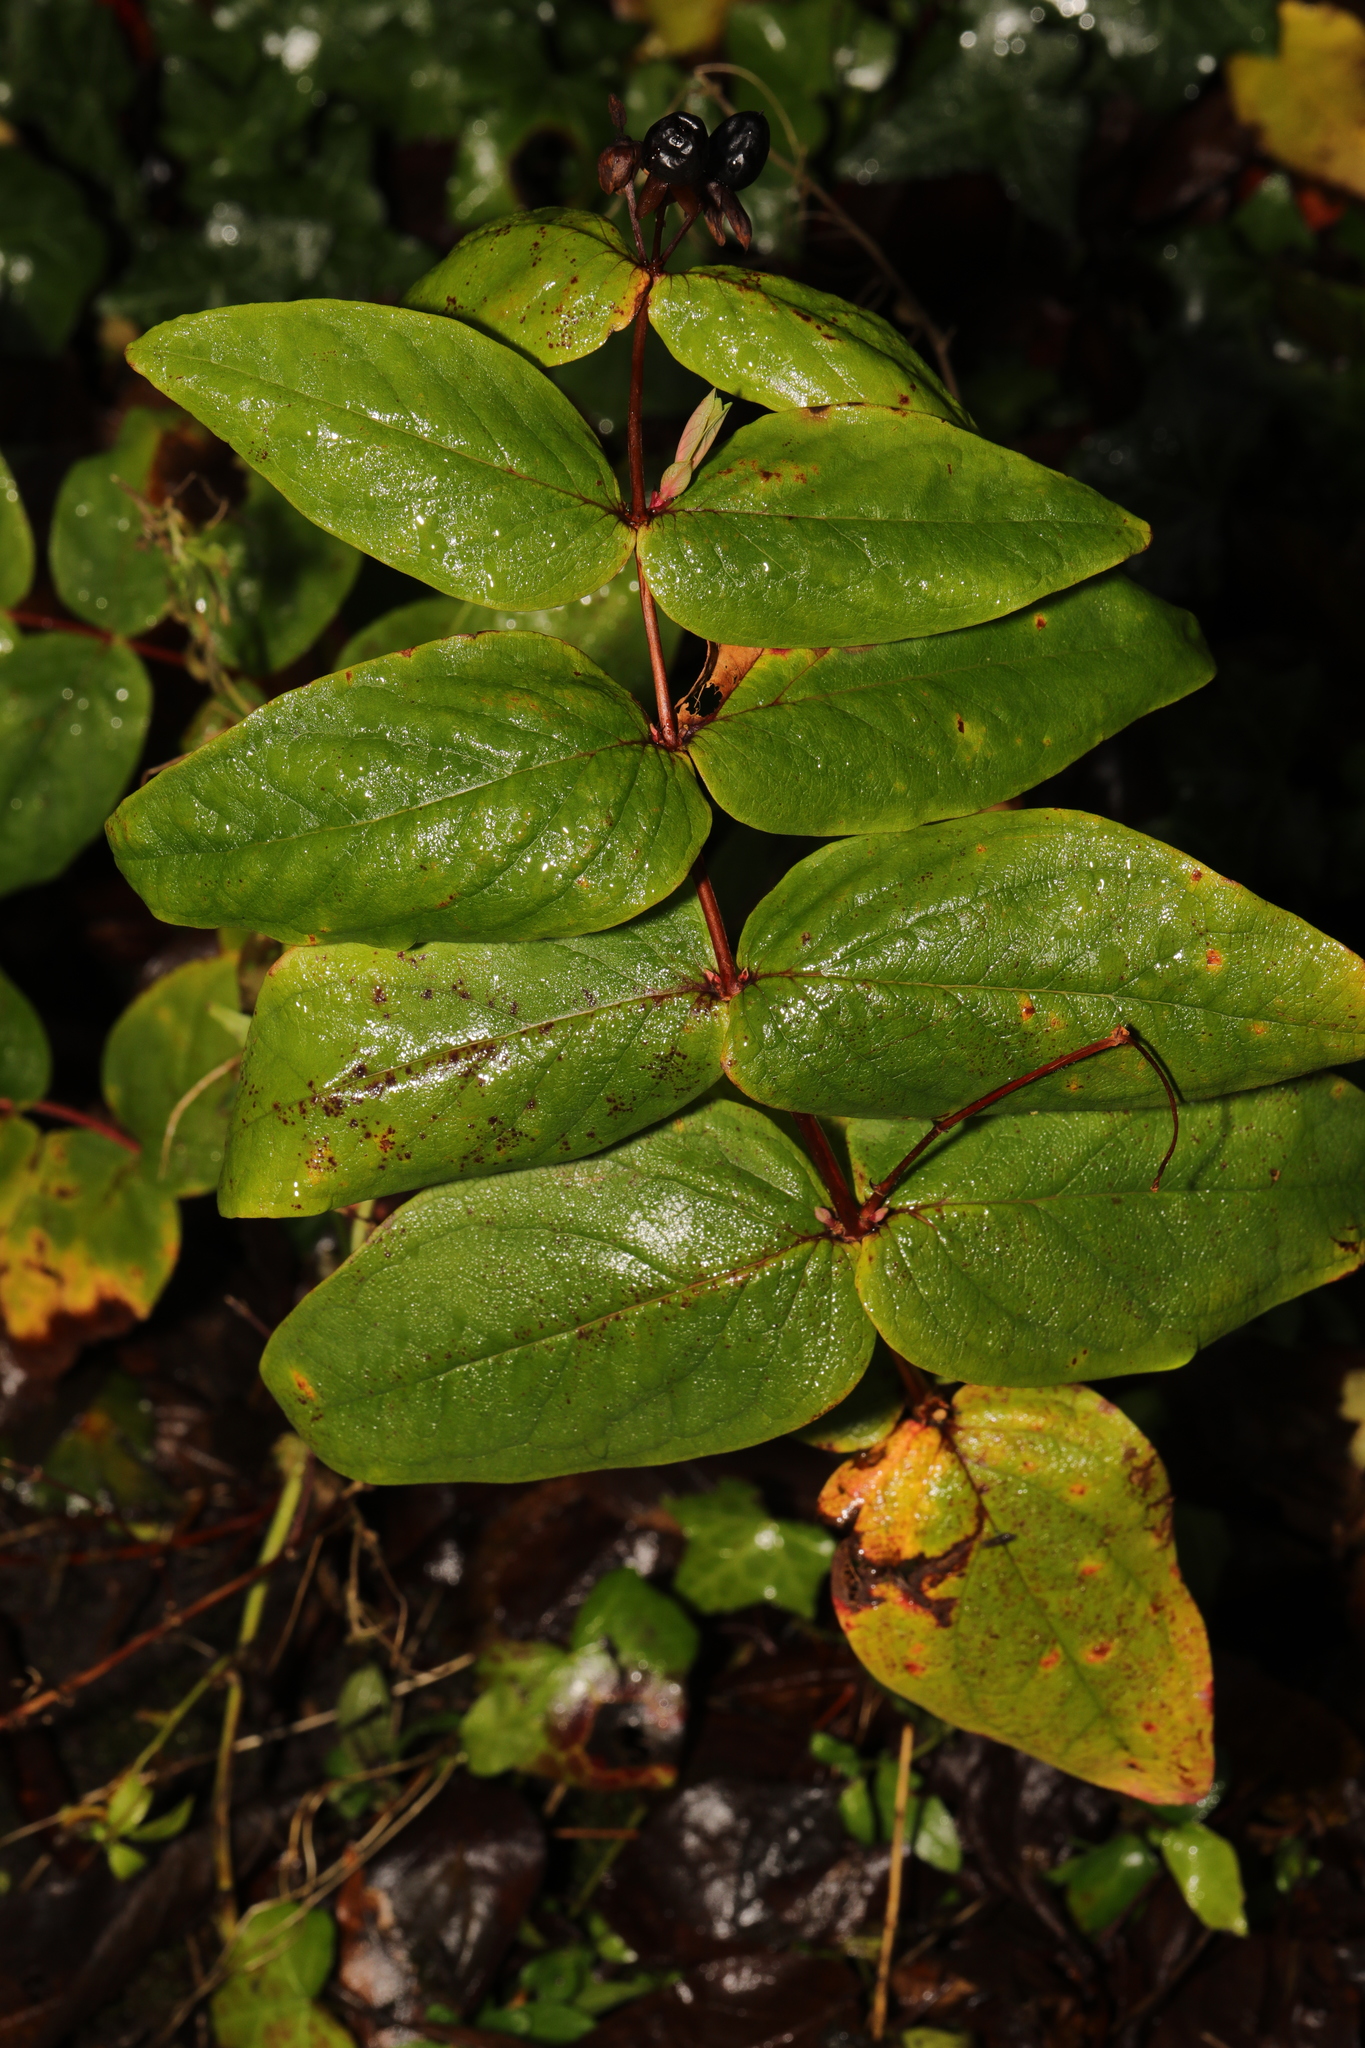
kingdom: Plantae
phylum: Tracheophyta
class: Magnoliopsida
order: Malpighiales
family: Hypericaceae
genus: Hypericum
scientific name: Hypericum androsaemum
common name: Sweet-amber
